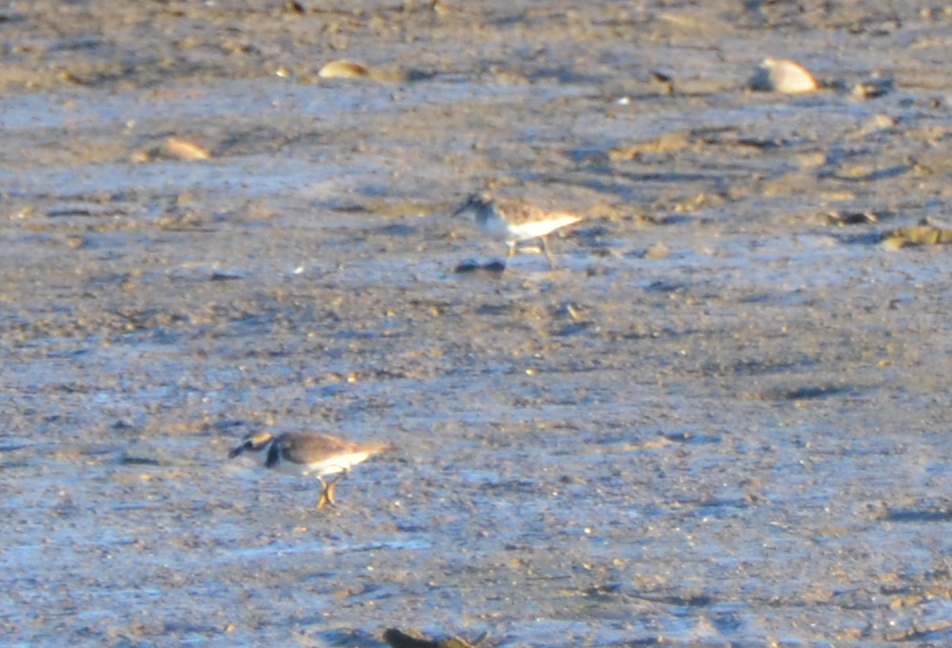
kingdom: Animalia
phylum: Chordata
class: Aves
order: Charadriiformes
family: Charadriidae
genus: Charadrius
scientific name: Charadrius semipalmatus
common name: Semipalmated plover
